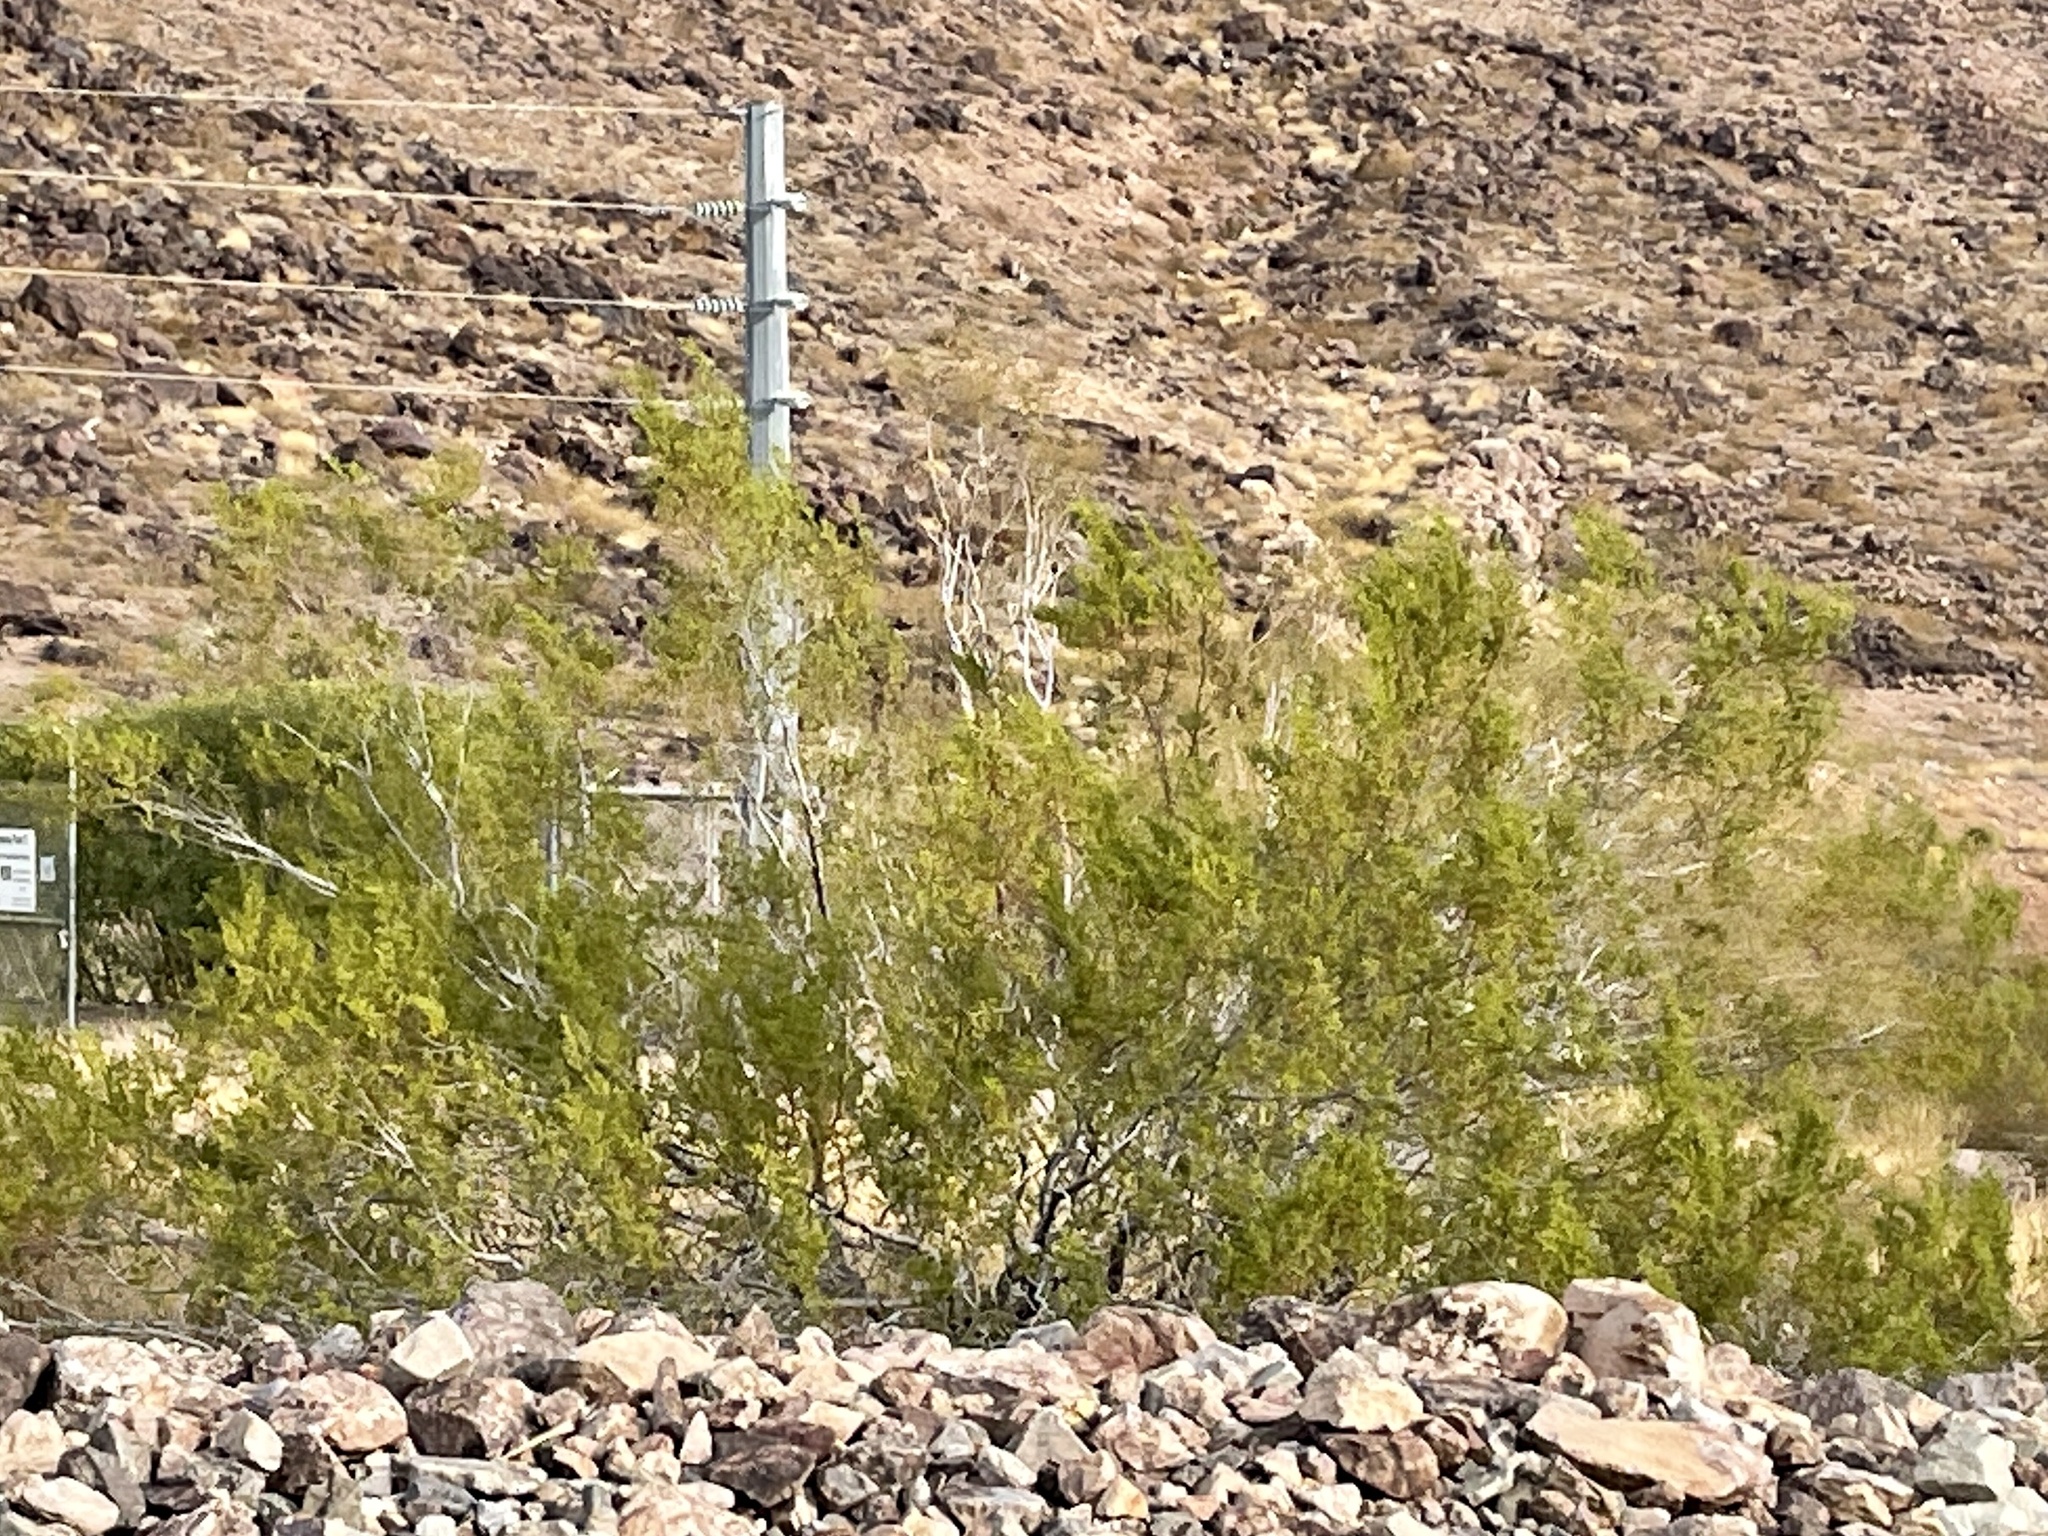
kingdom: Plantae
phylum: Tracheophyta
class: Magnoliopsida
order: Zygophyllales
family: Zygophyllaceae
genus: Larrea
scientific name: Larrea tridentata
